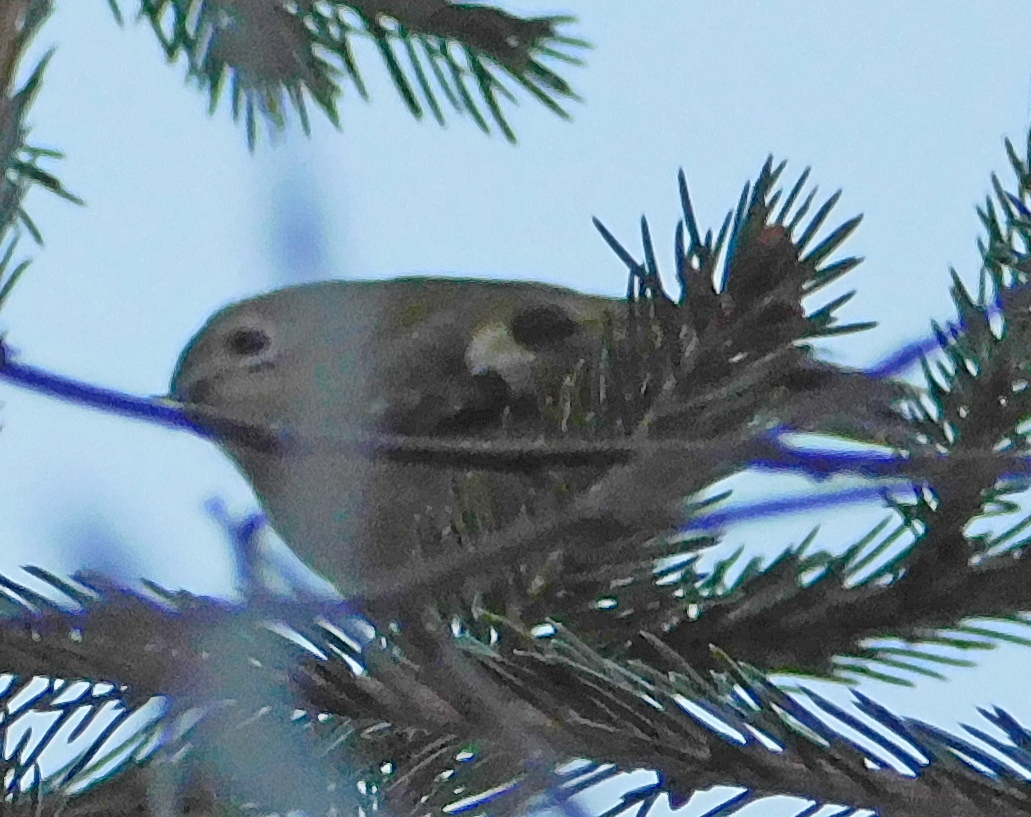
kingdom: Animalia
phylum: Chordata
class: Aves
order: Passeriformes
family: Regulidae
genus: Regulus
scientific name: Regulus regulus
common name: Goldcrest
